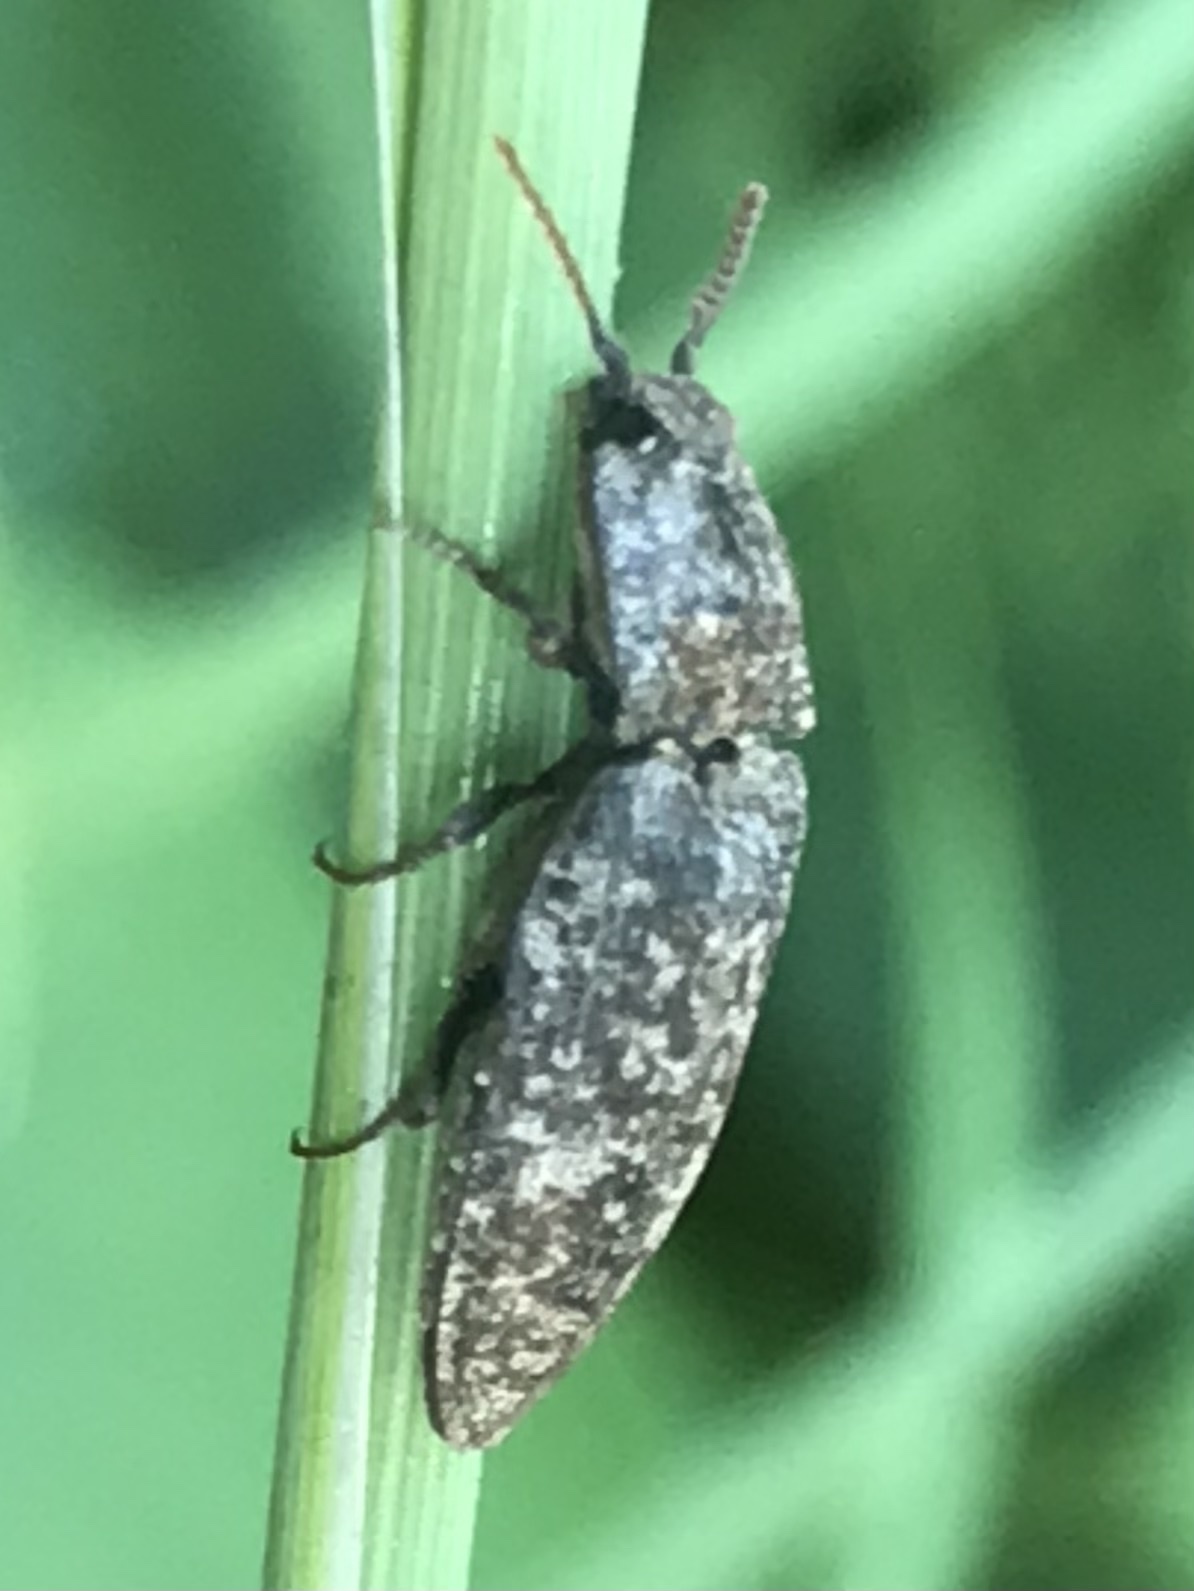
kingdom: Animalia
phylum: Arthropoda
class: Insecta
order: Coleoptera
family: Elateridae
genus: Agrypnus
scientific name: Agrypnus murinus
